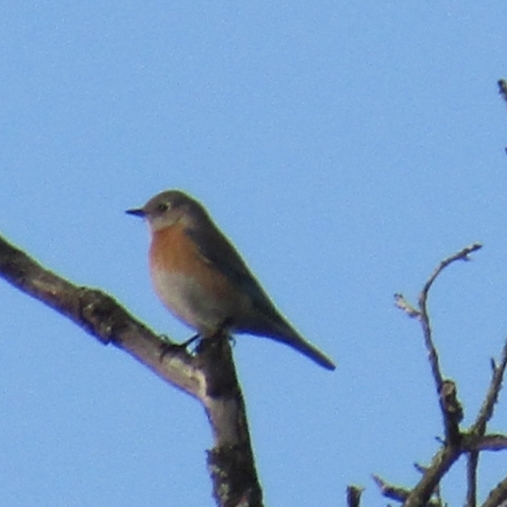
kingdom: Animalia
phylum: Chordata
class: Aves
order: Passeriformes
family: Turdidae
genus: Sialia
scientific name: Sialia mexicana
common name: Western bluebird
